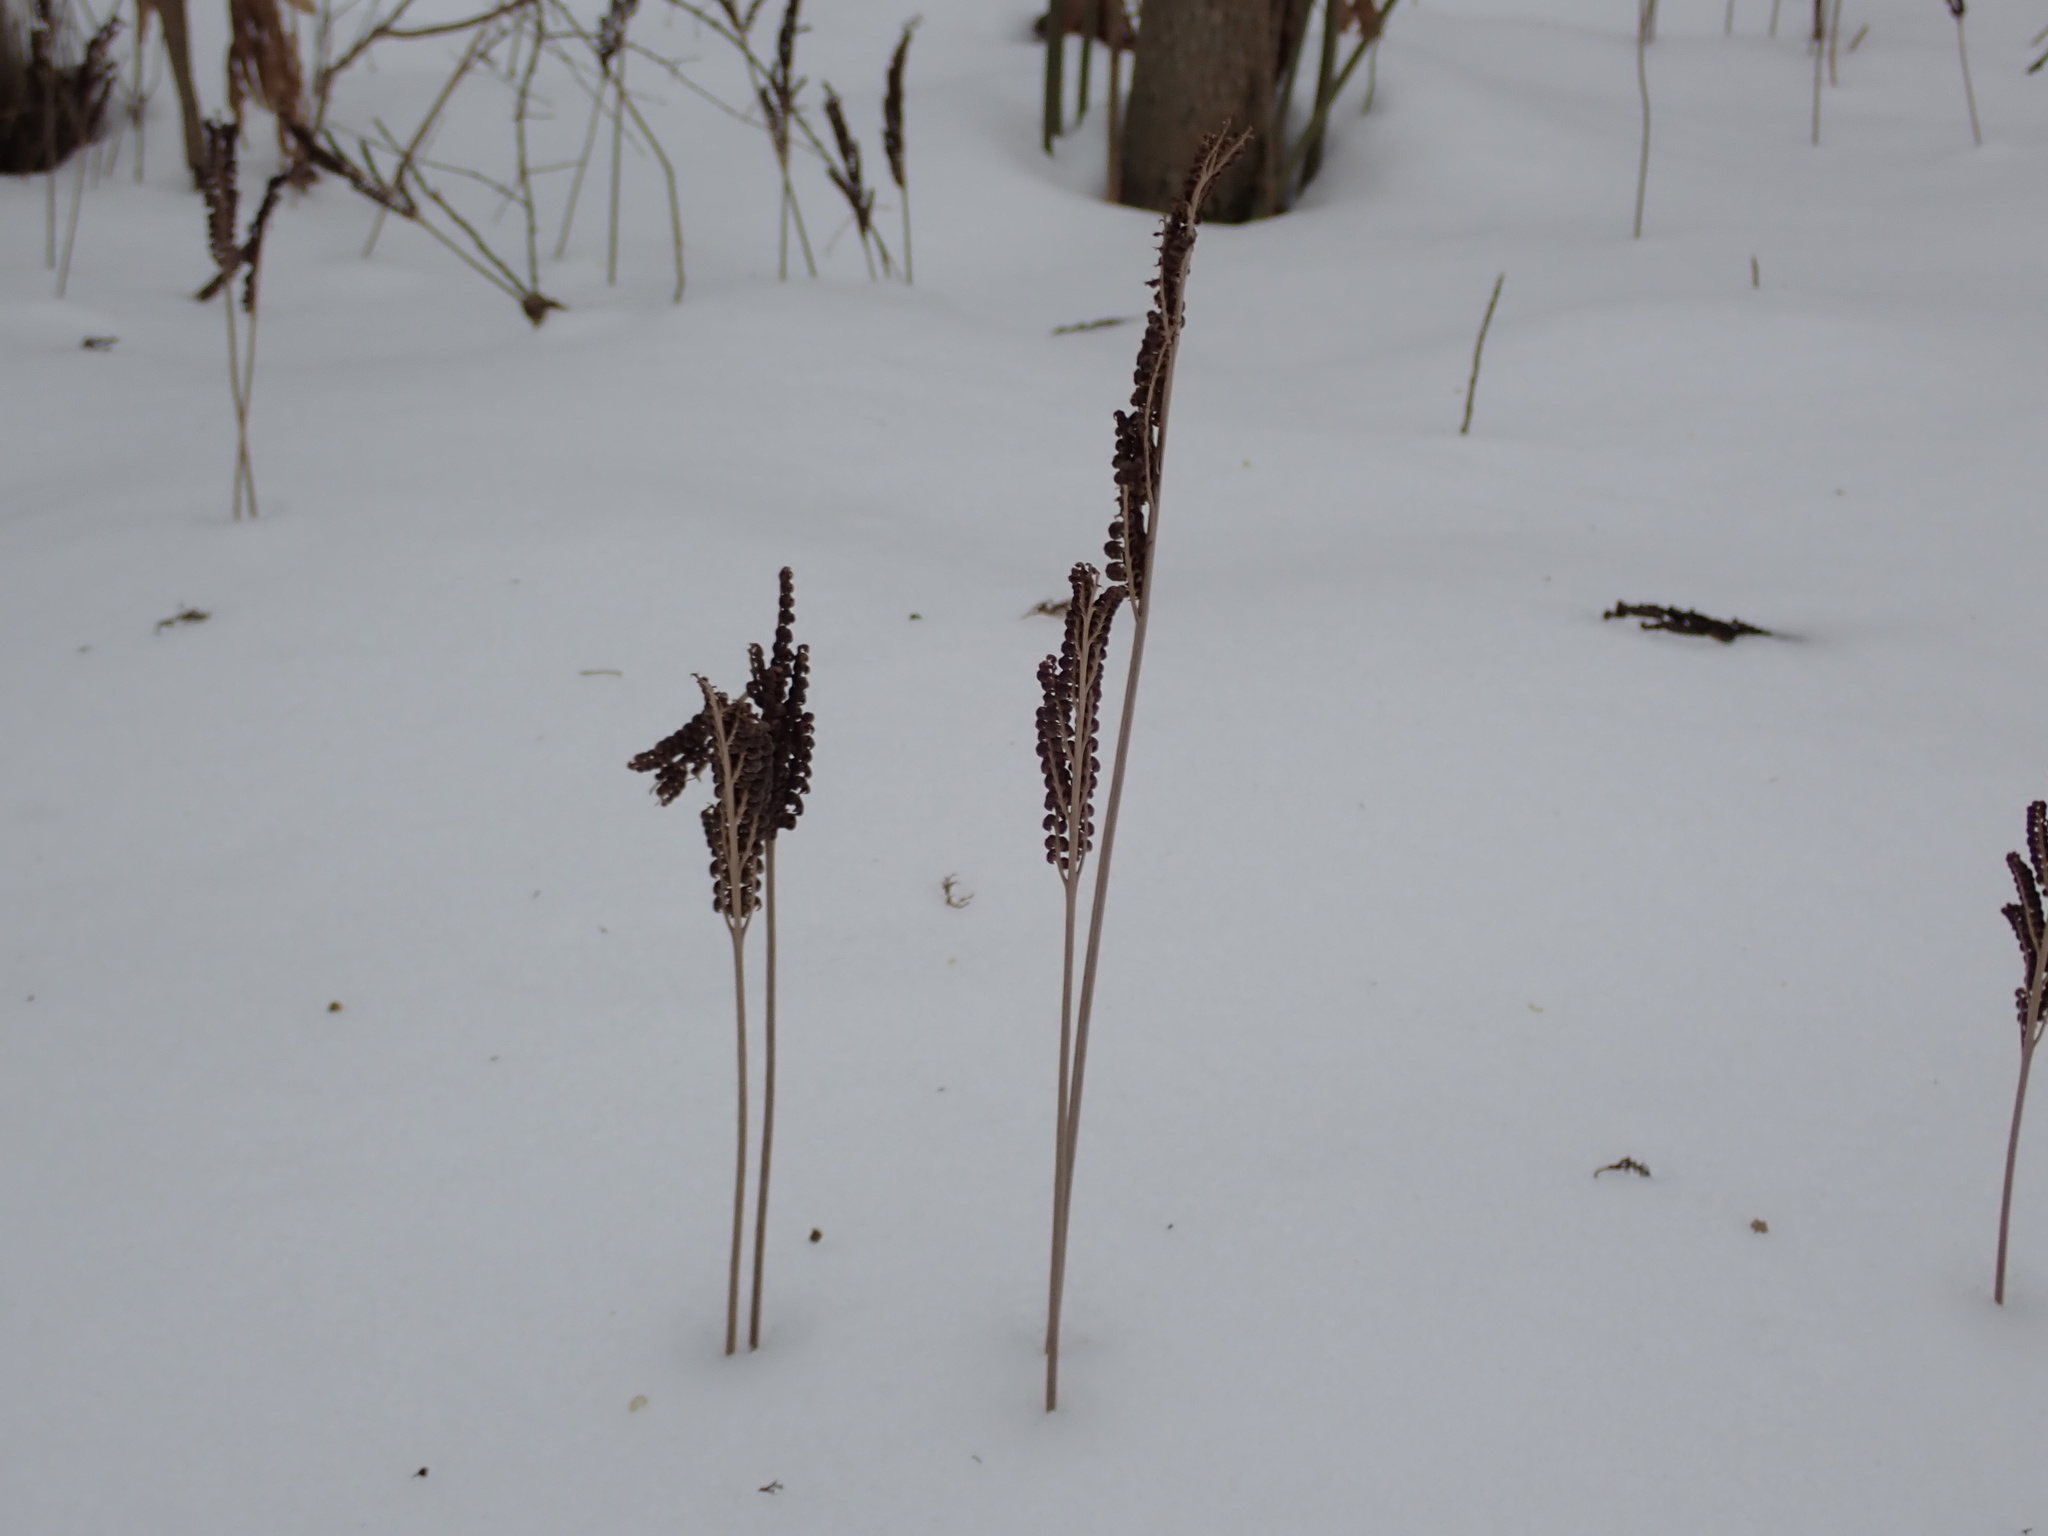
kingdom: Plantae
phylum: Tracheophyta
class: Polypodiopsida
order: Polypodiales
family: Onocleaceae
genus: Onoclea
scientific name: Onoclea sensibilis
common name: Sensitive fern
